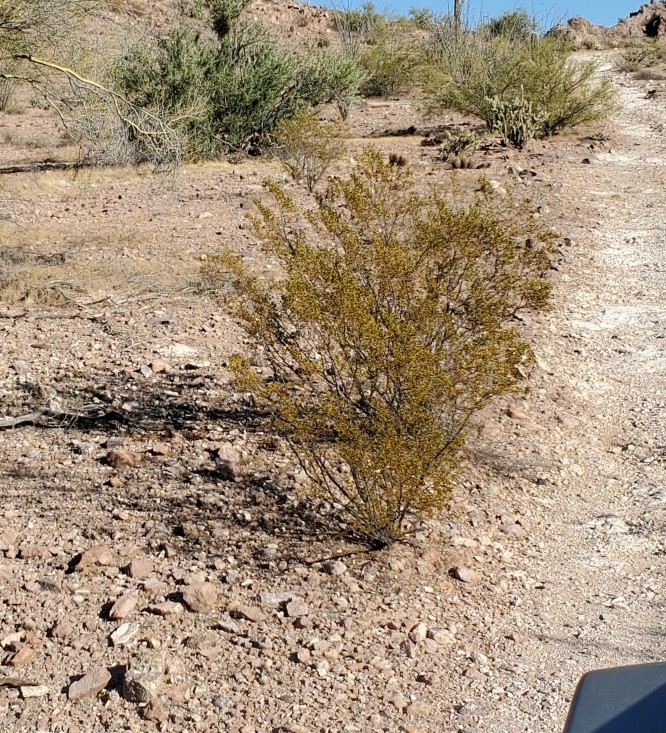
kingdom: Plantae
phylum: Tracheophyta
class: Magnoliopsida
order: Zygophyllales
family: Zygophyllaceae
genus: Larrea
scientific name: Larrea tridentata
